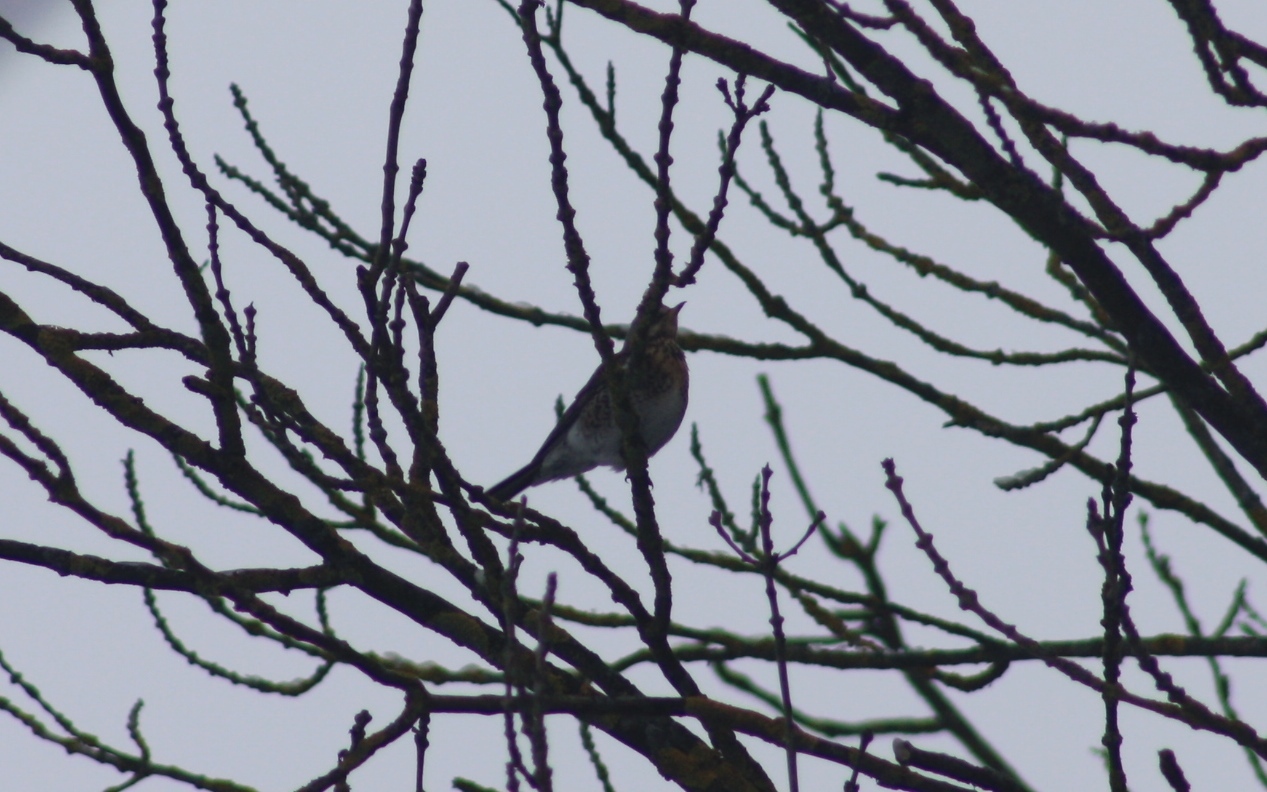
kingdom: Animalia
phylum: Chordata
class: Aves
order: Passeriformes
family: Turdidae
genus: Turdus
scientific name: Turdus pilaris
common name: Fieldfare
